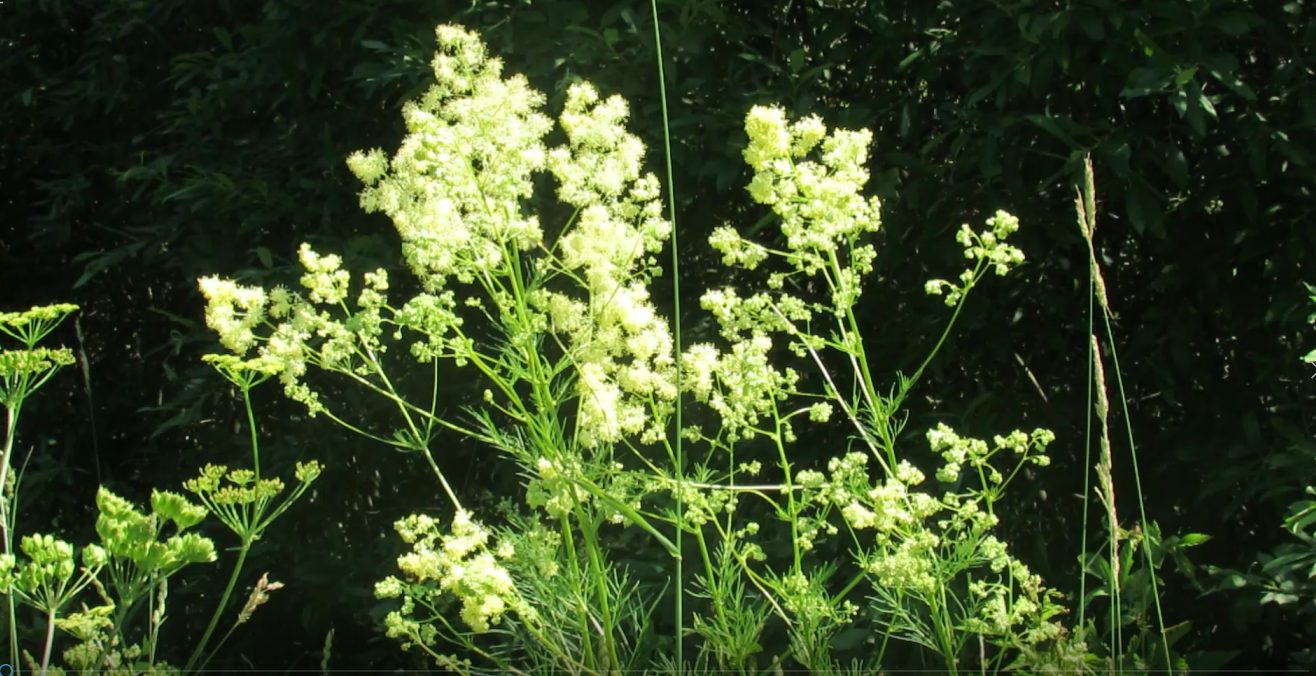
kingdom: Plantae
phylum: Tracheophyta
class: Magnoliopsida
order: Ranunculales
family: Ranunculaceae
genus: Thalictrum
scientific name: Thalictrum lucidum
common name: Shining meadow-rue
